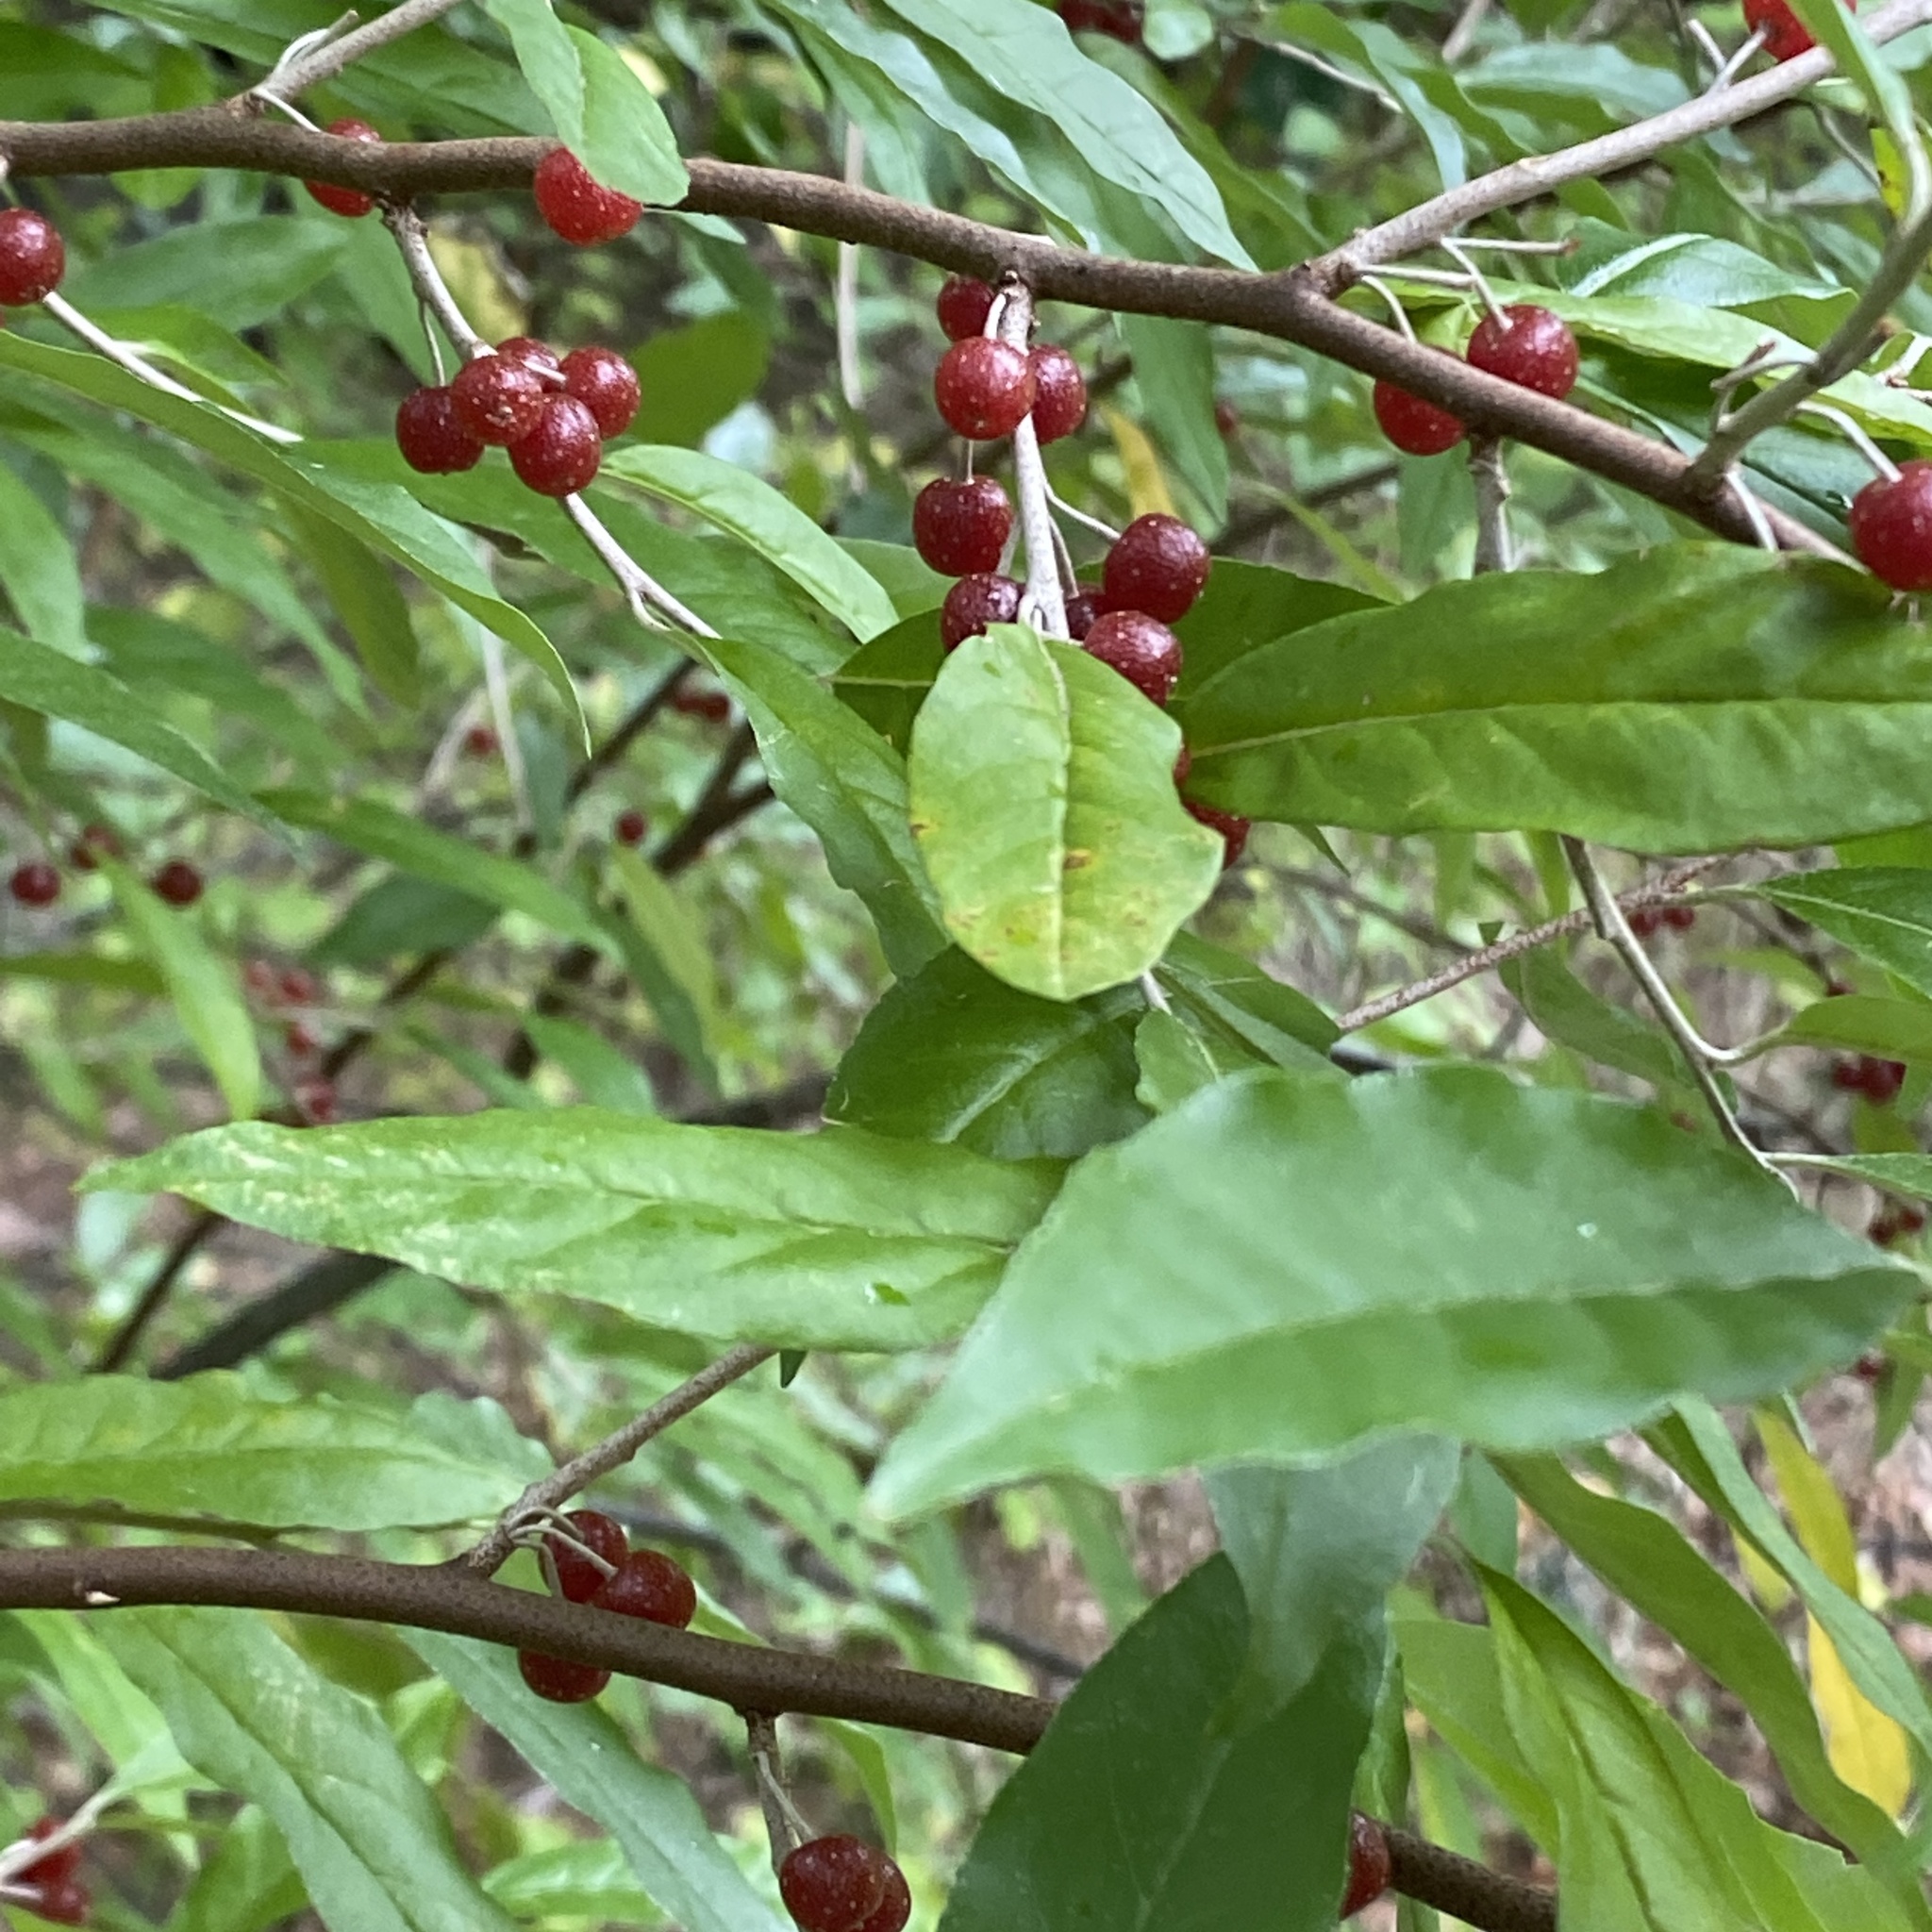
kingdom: Plantae
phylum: Tracheophyta
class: Magnoliopsida
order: Rosales
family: Elaeagnaceae
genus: Elaeagnus
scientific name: Elaeagnus umbellata
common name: Autumn olive
